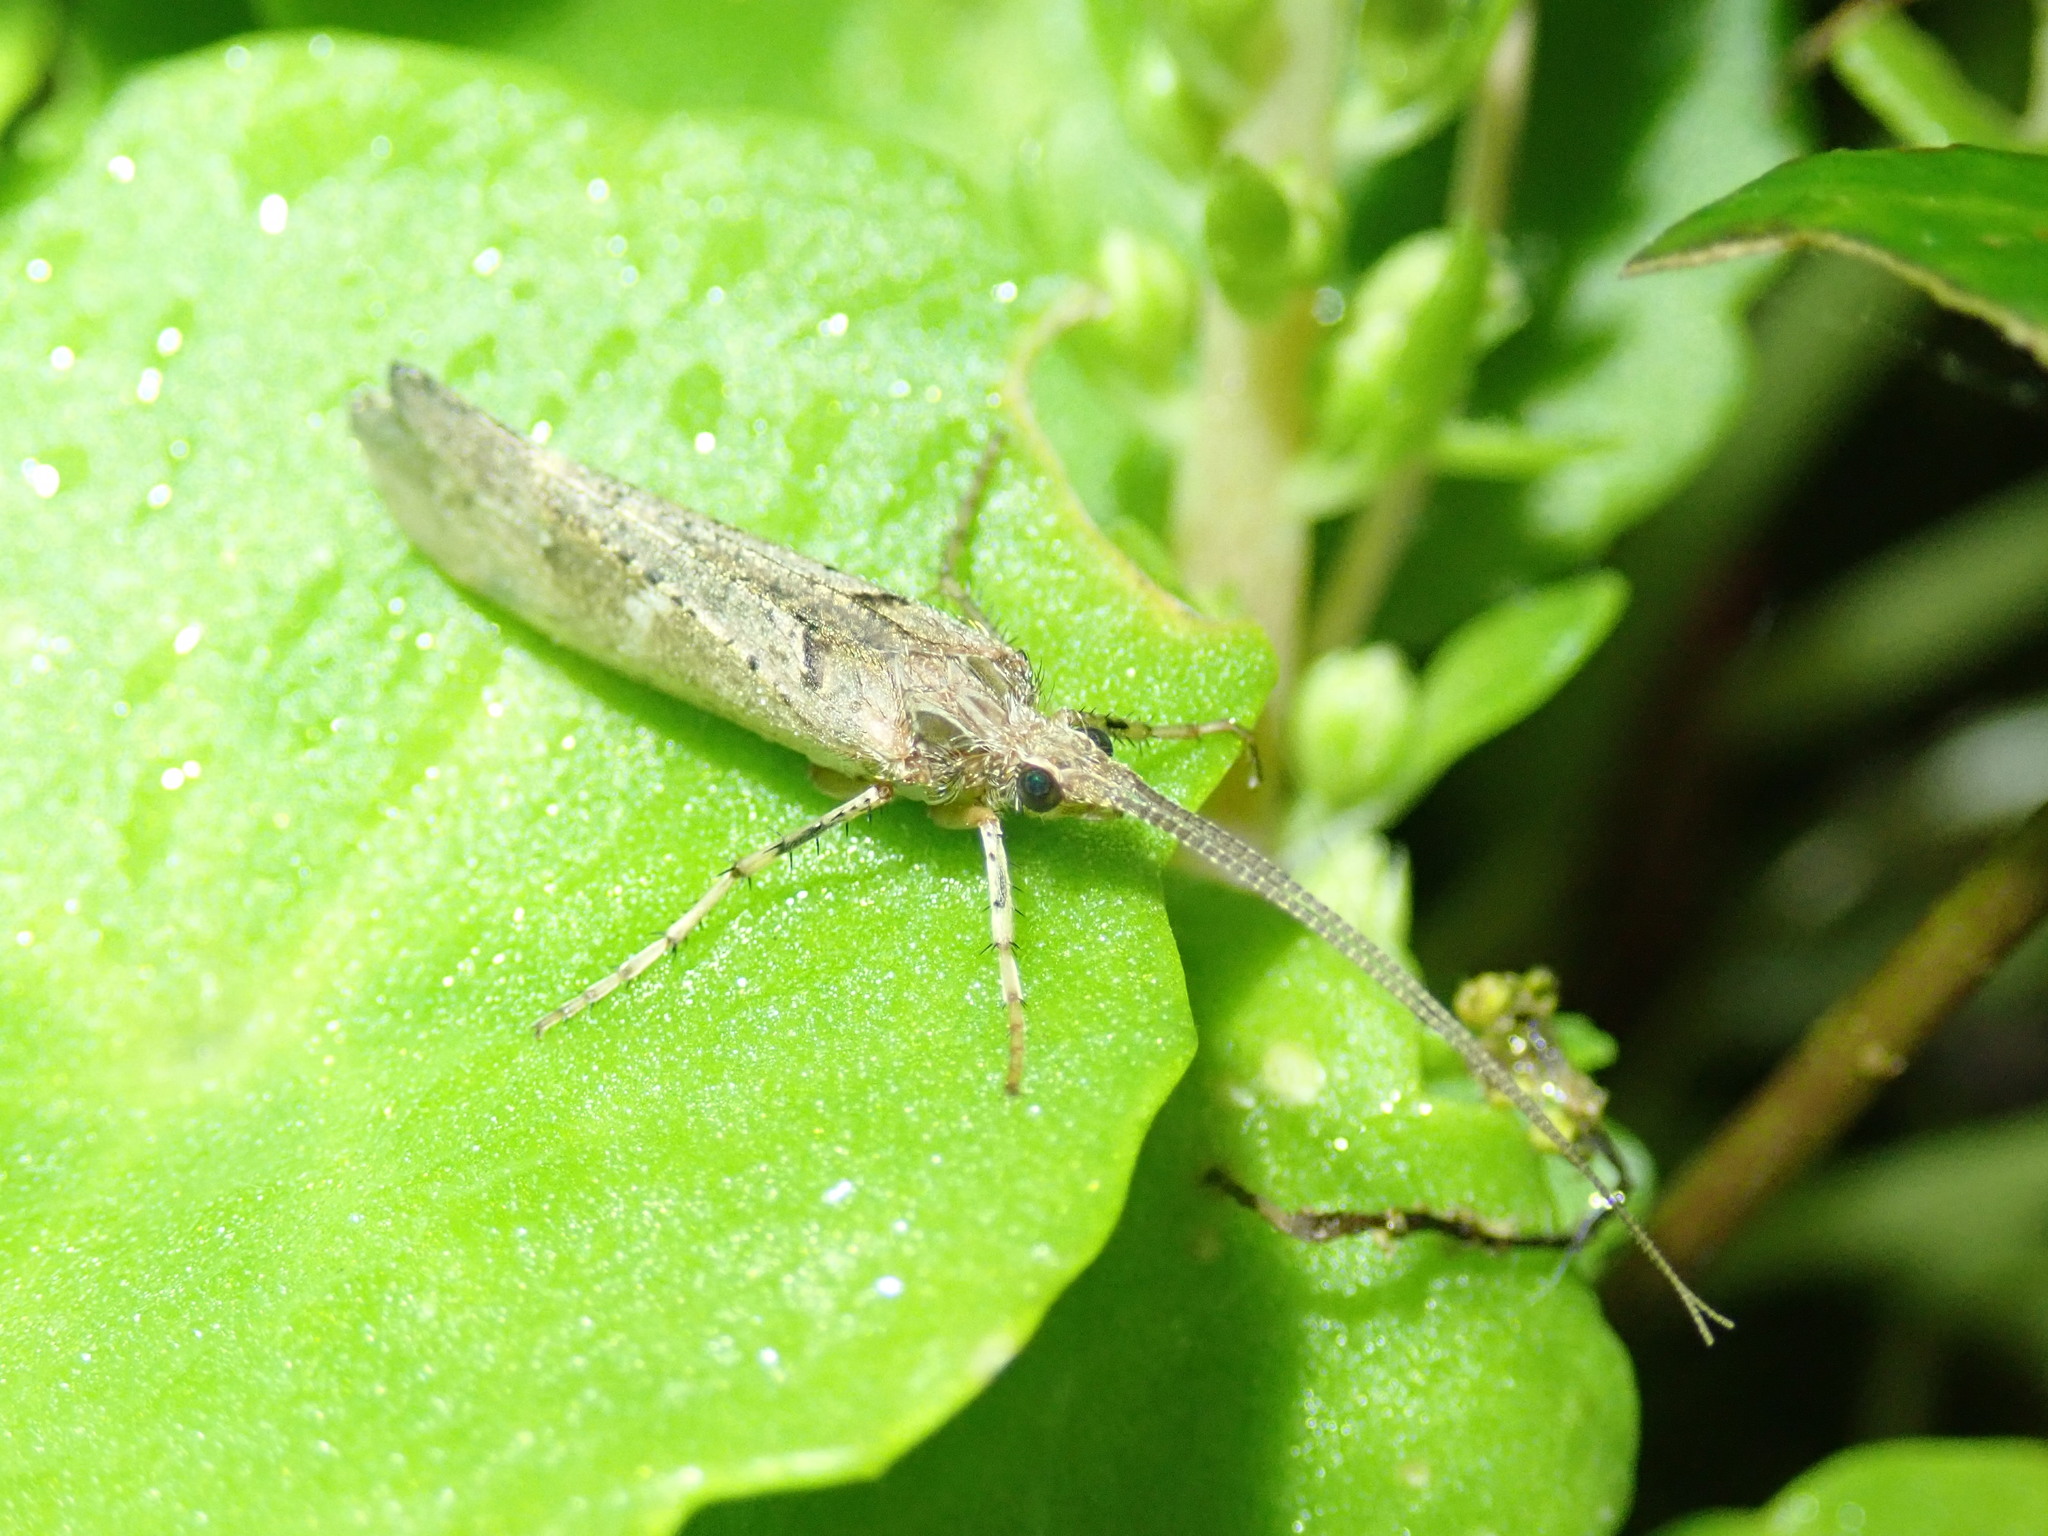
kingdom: Animalia
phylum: Arthropoda
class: Insecta
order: Trichoptera
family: Limnephilidae
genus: Glyphotaelius
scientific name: Glyphotaelius pellucidus
